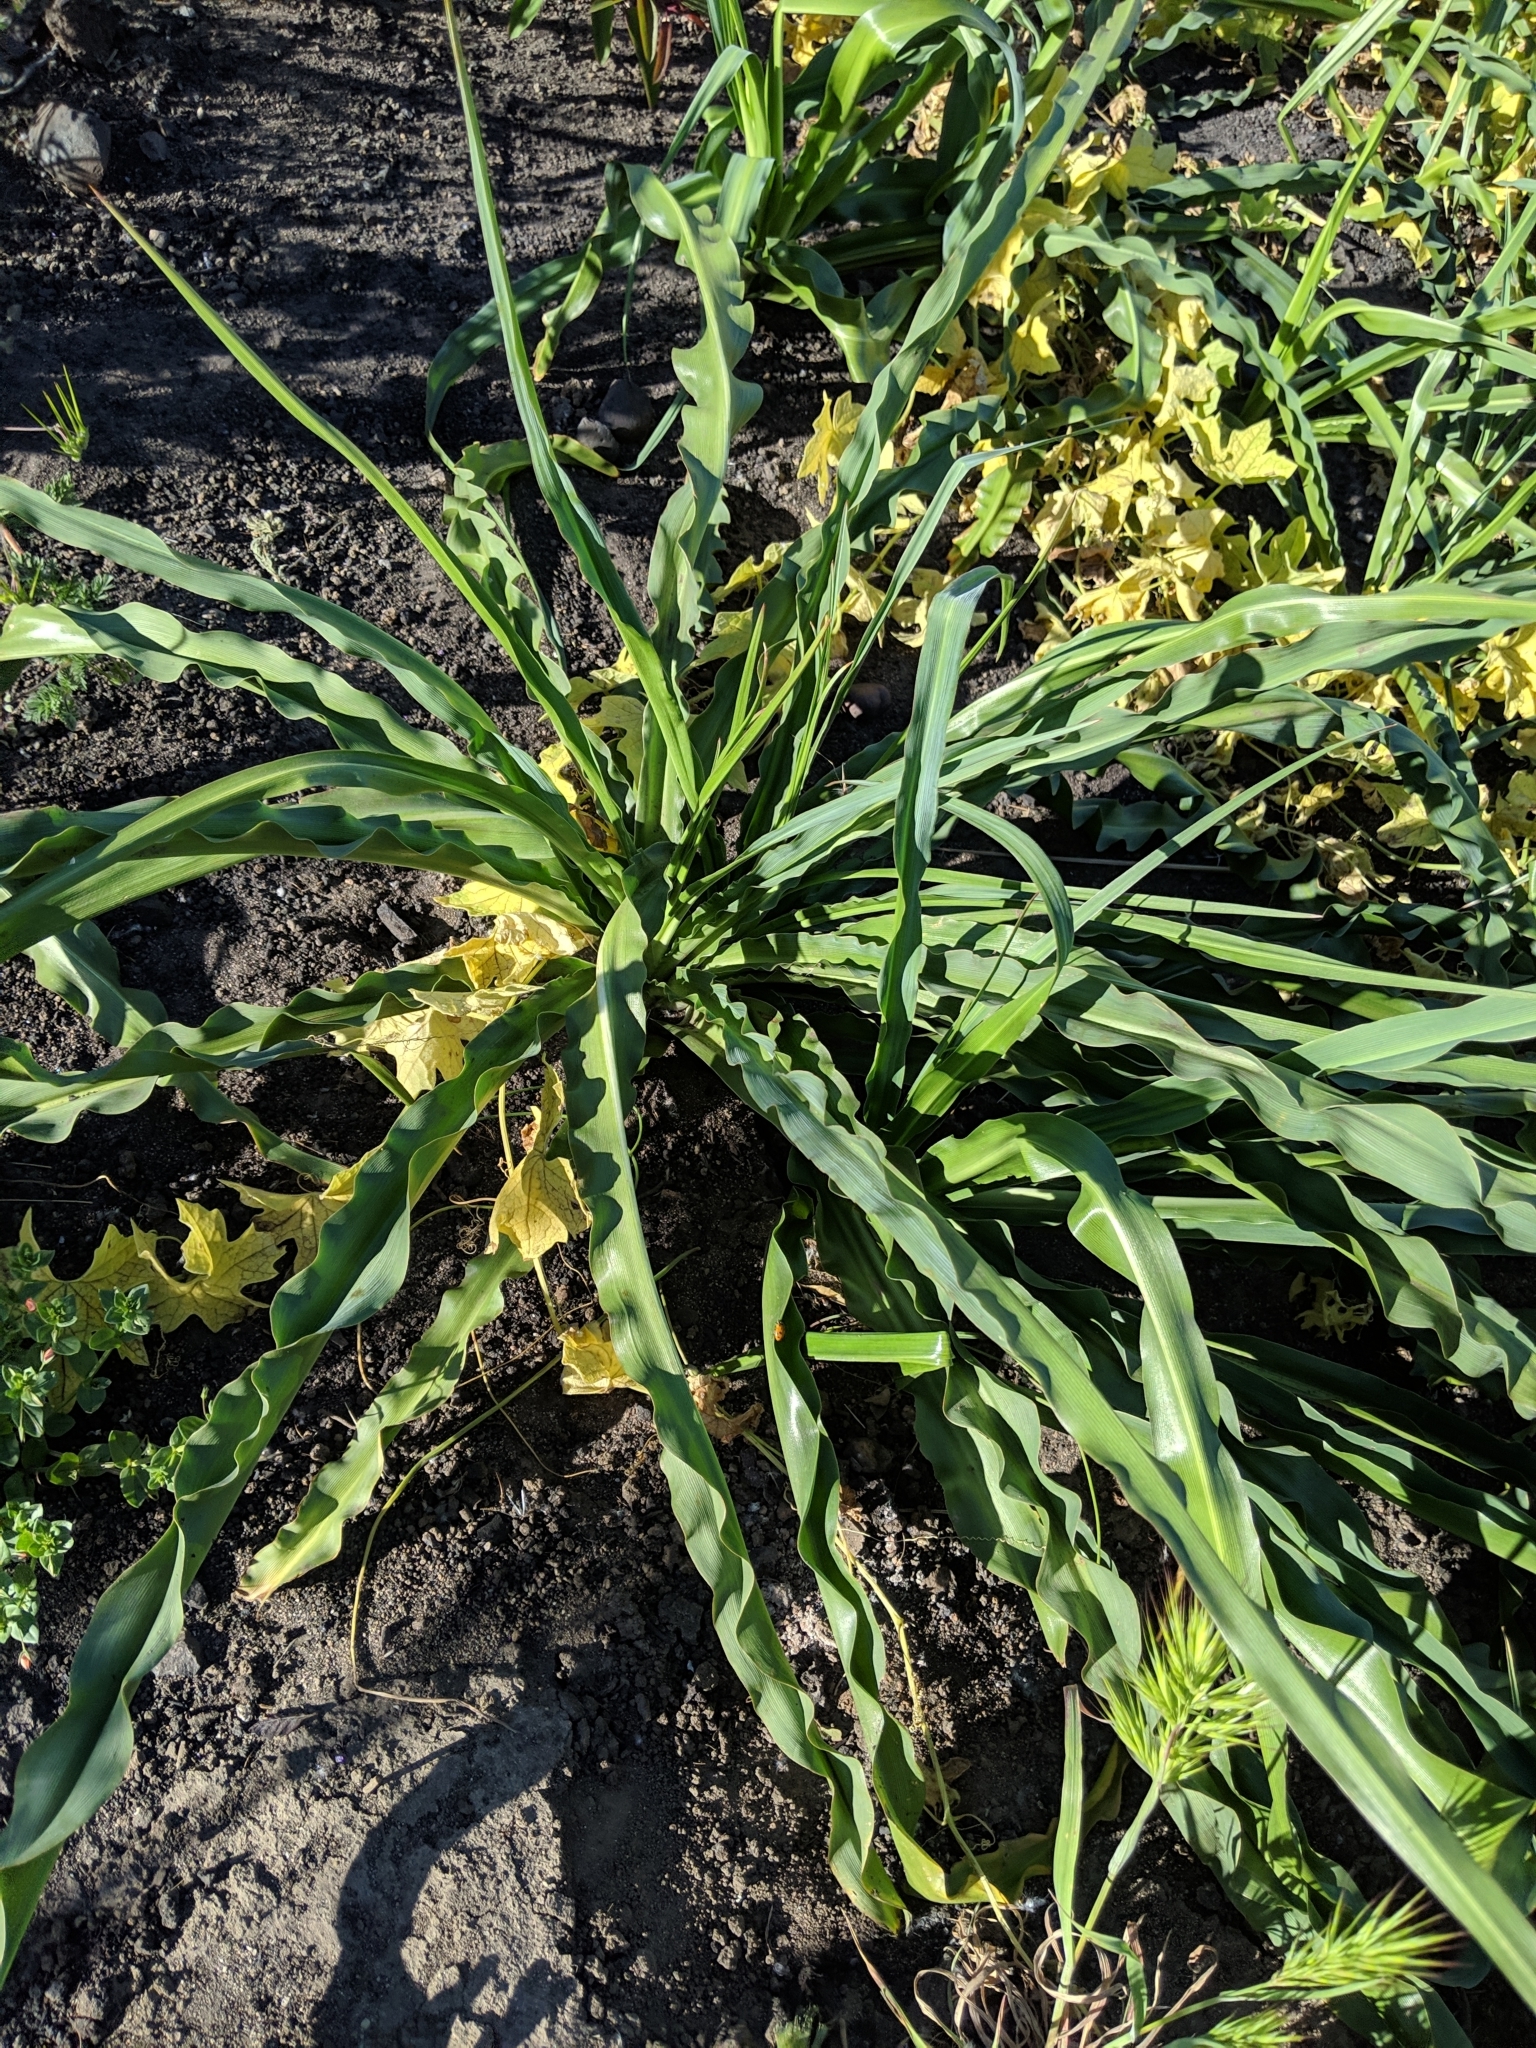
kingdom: Plantae
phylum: Tracheophyta
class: Liliopsida
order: Asparagales
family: Asparagaceae
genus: Chlorogalum
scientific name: Chlorogalum pomeridianum
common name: Amole
